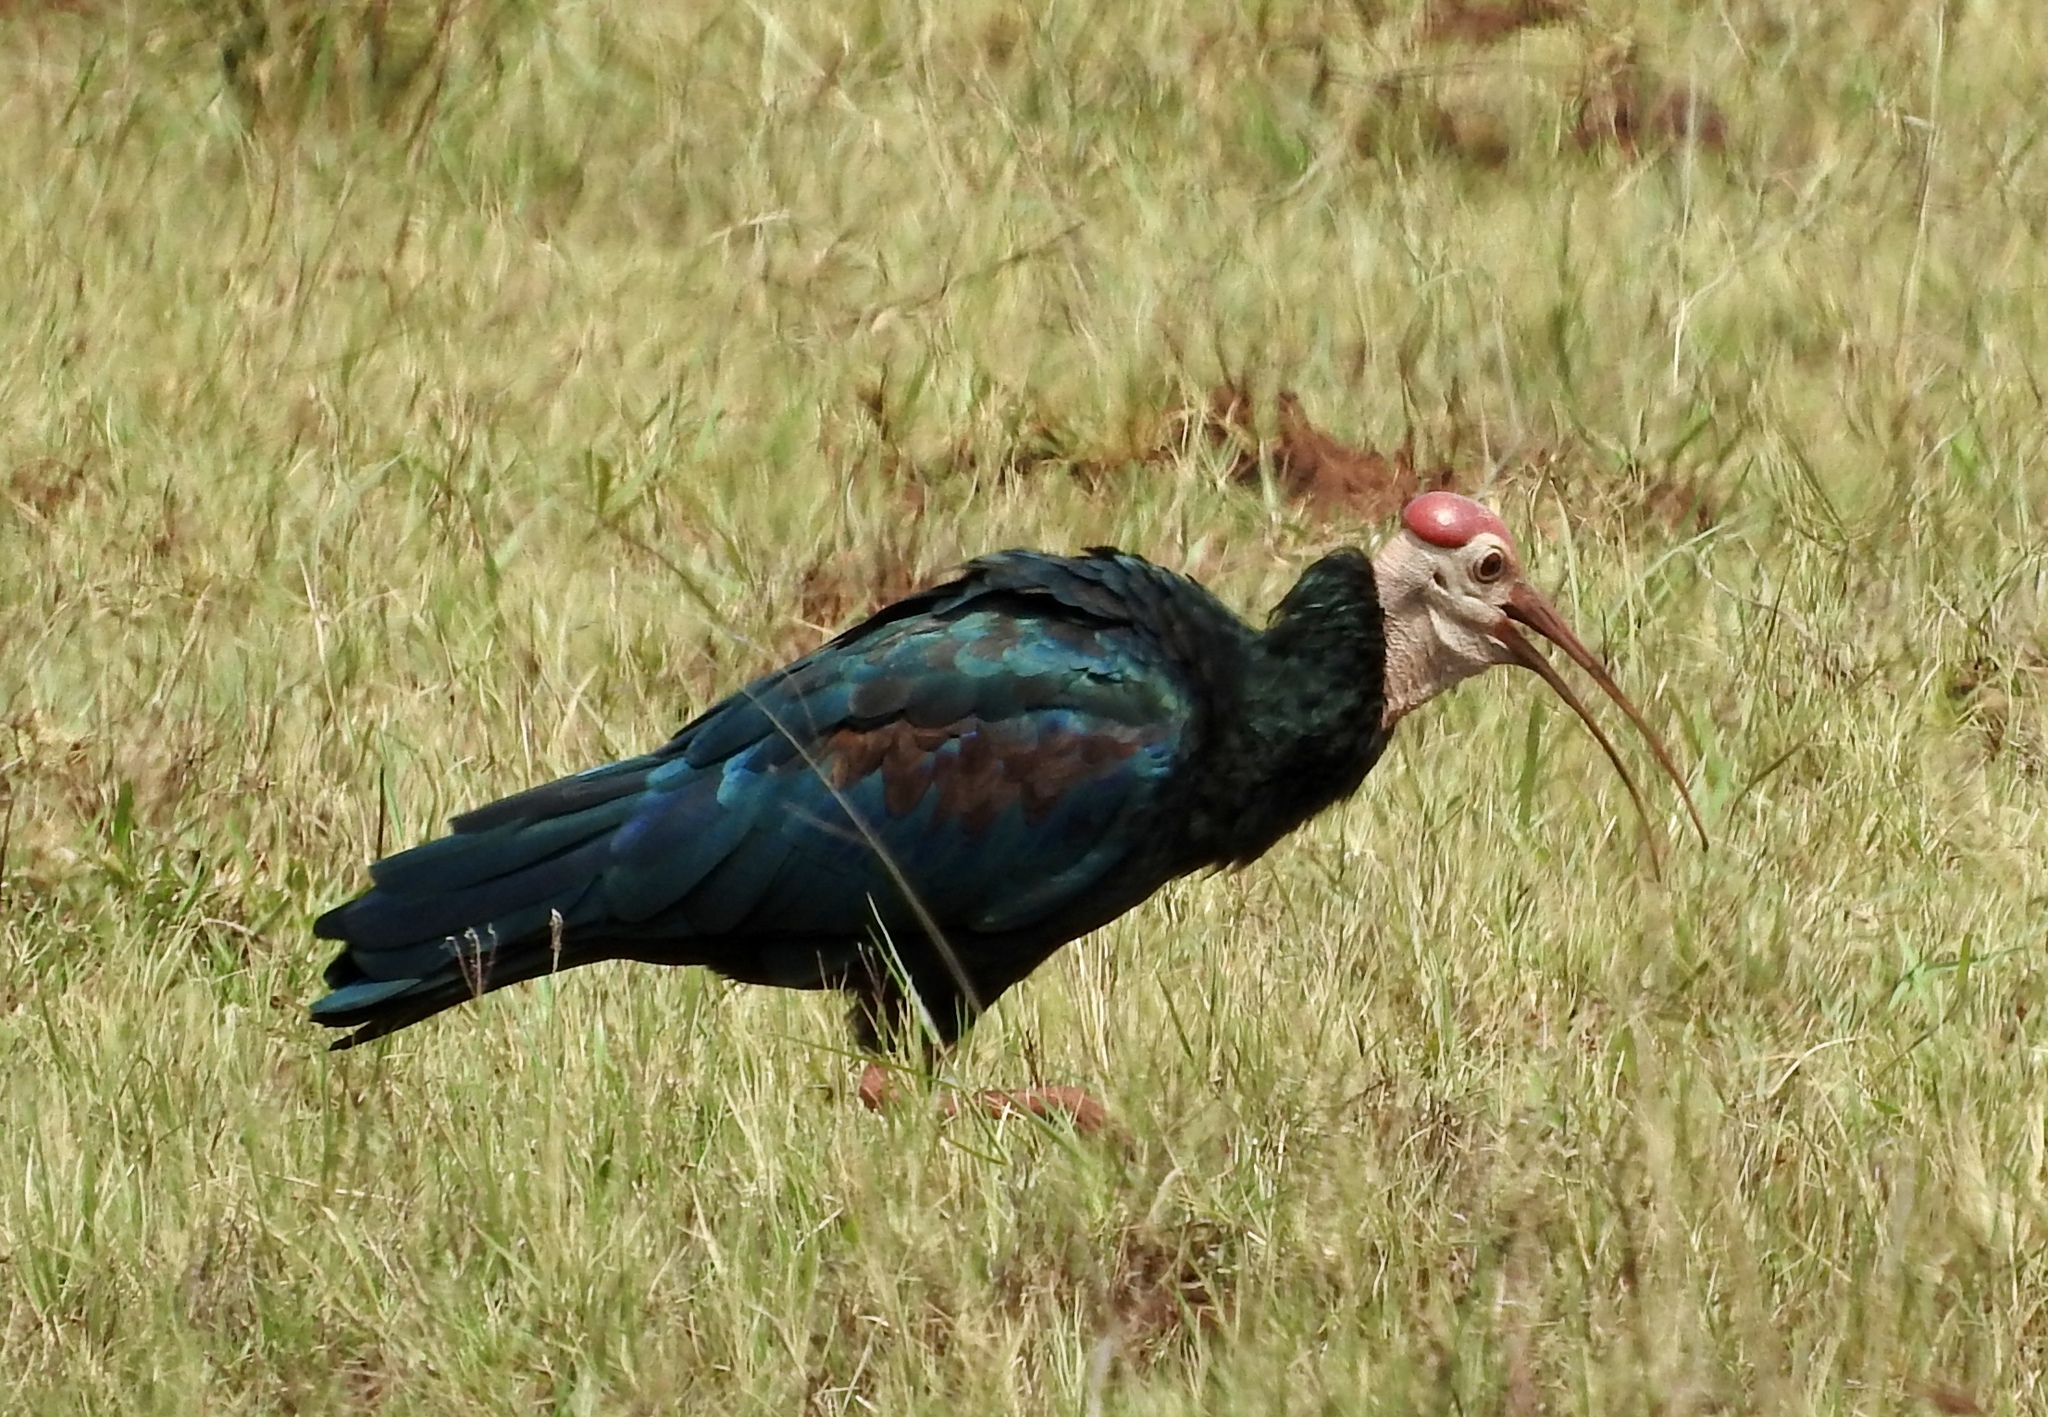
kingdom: Animalia
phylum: Chordata
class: Aves
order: Pelecaniformes
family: Threskiornithidae
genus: Geronticus
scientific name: Geronticus calvus
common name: Southern bald ibis
